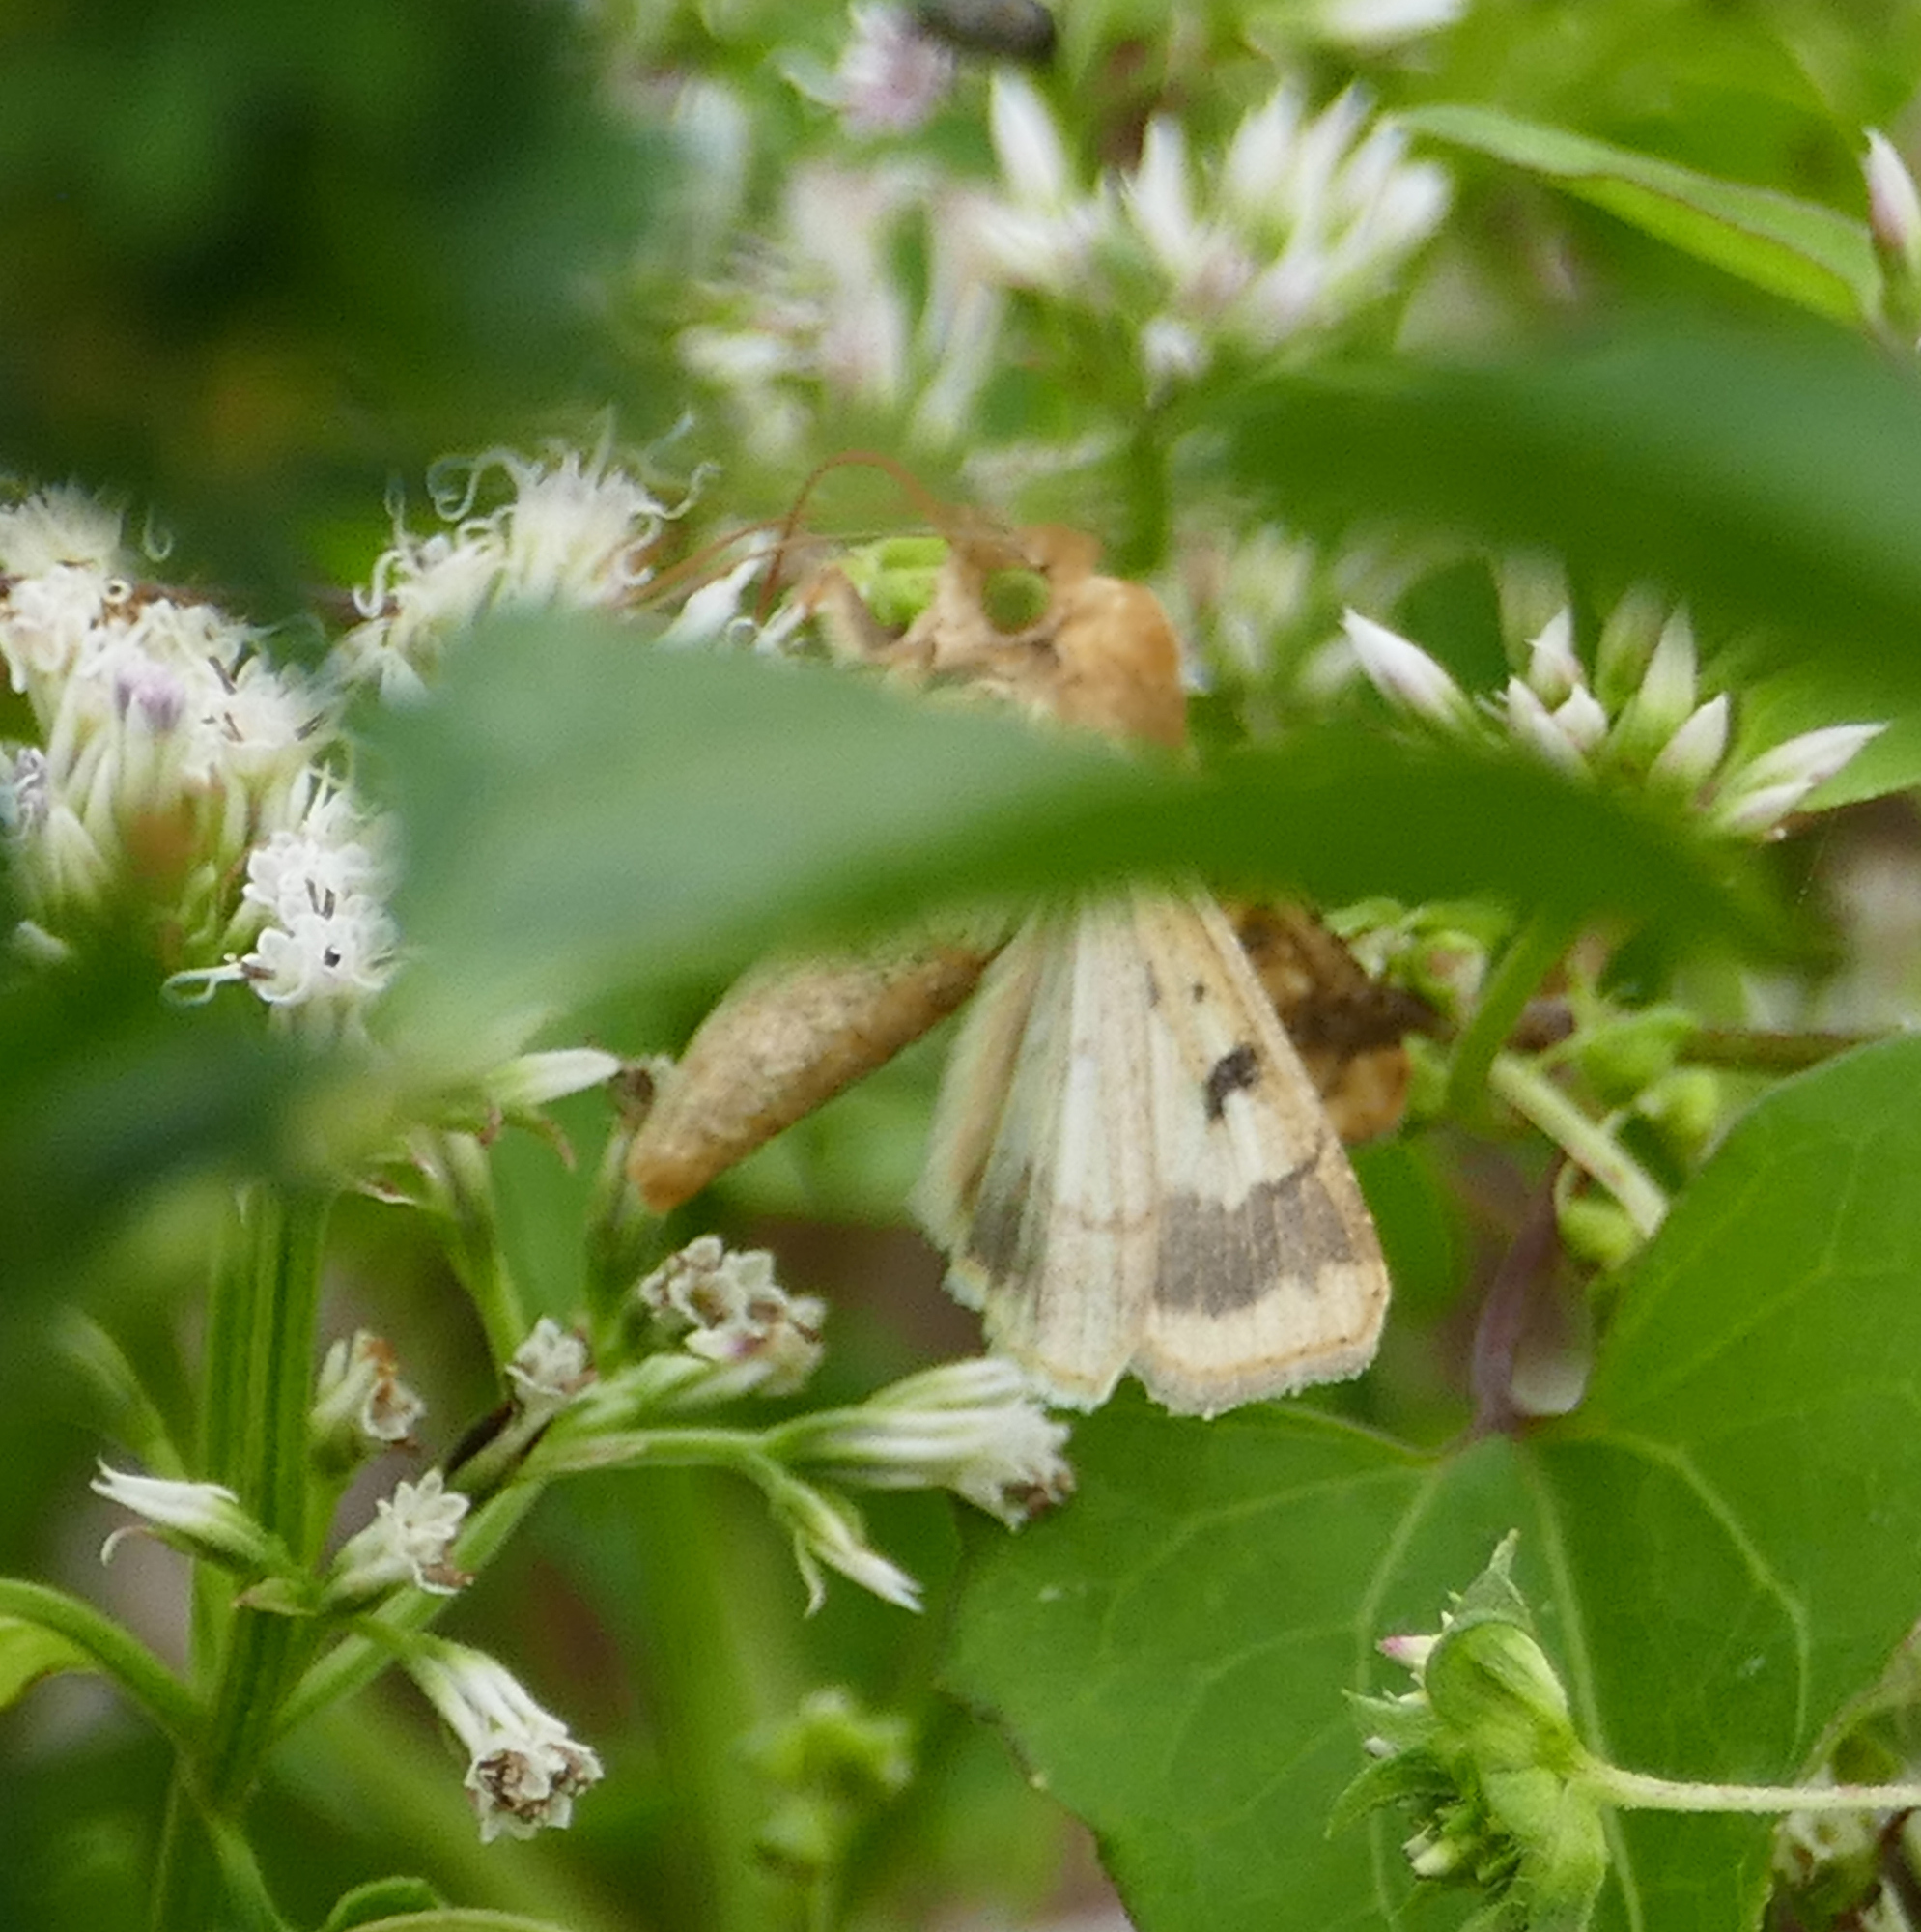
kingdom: Animalia
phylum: Arthropoda
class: Insecta
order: Lepidoptera
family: Noctuidae
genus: Helicoverpa
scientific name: Helicoverpa zea
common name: Bollworm
